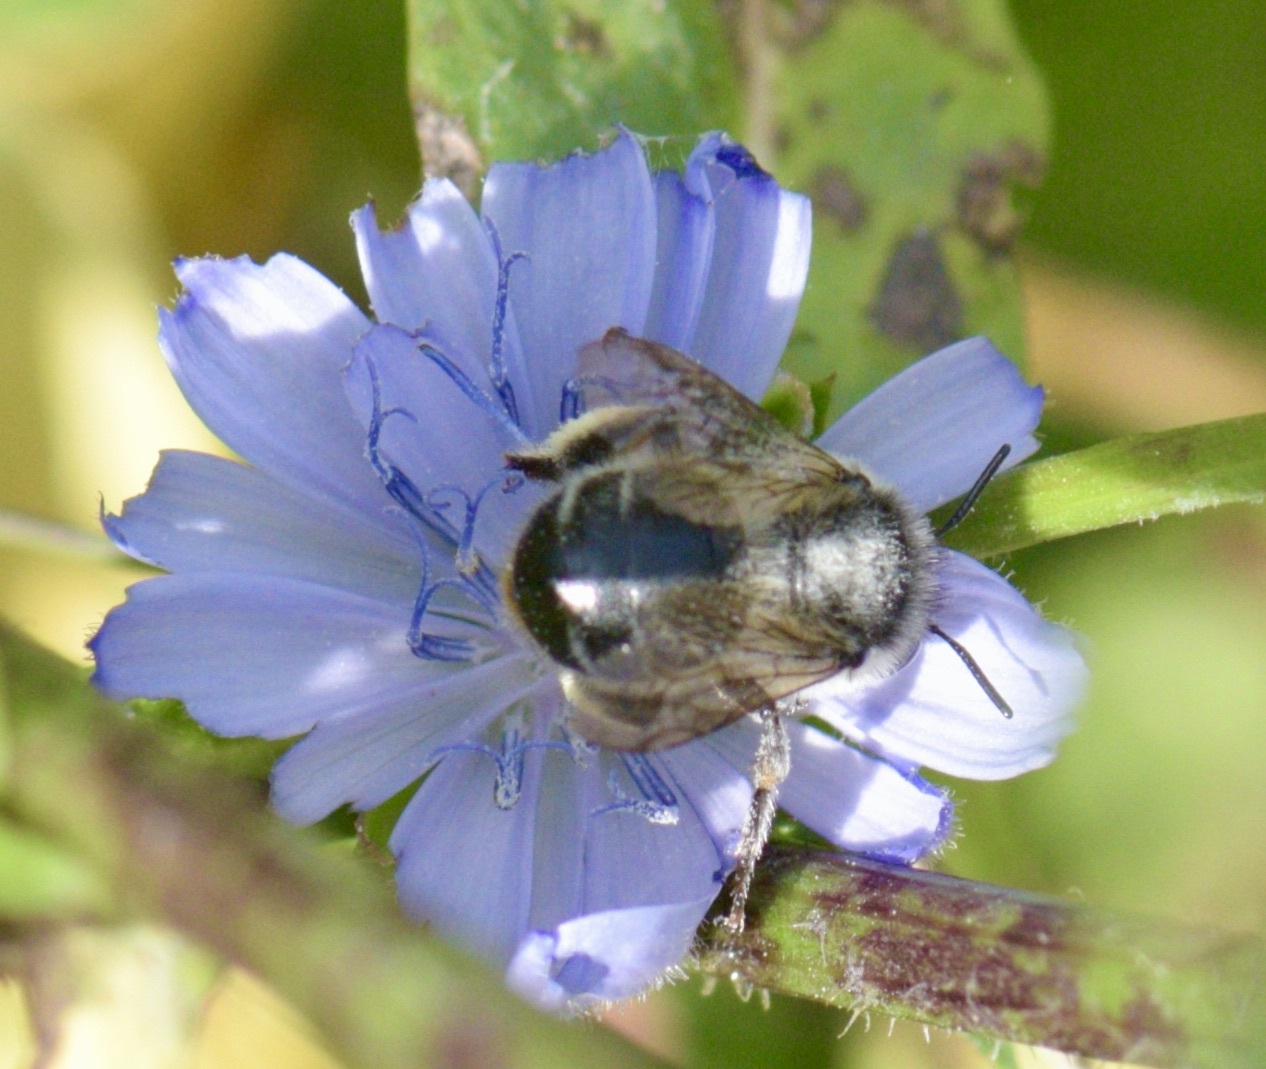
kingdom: Animalia
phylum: Arthropoda
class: Insecta
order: Hymenoptera
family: Apidae
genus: Anthophora
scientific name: Anthophora terminalis
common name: Orange-tipped wood-digger bee
